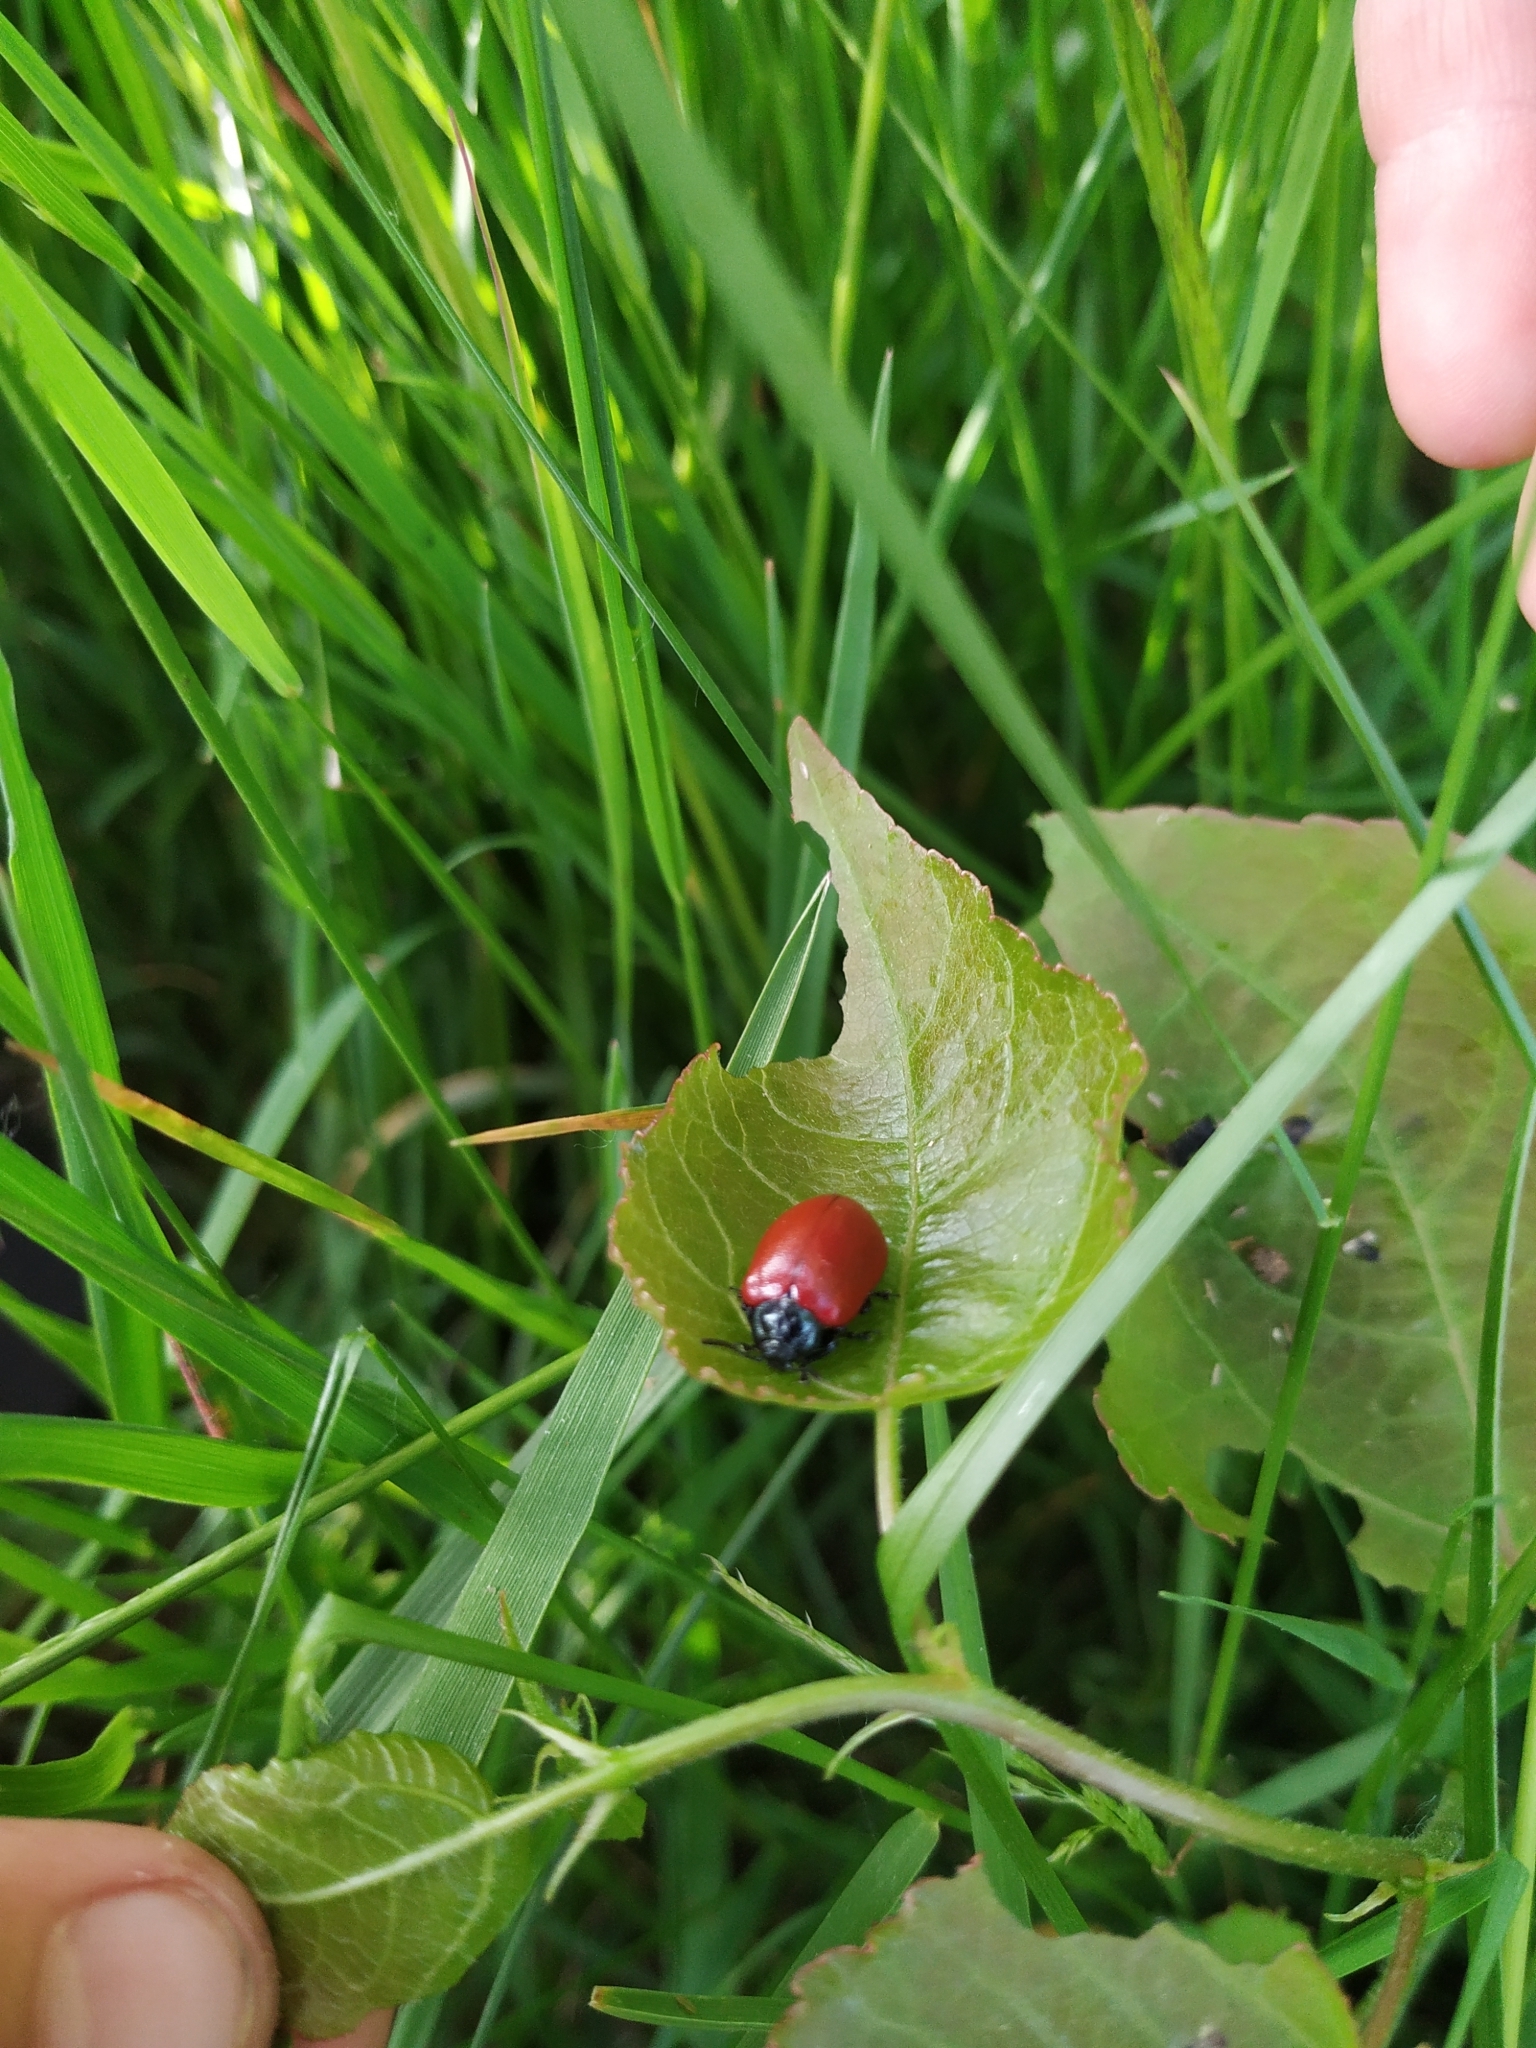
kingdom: Animalia
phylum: Arthropoda
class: Insecta
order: Coleoptera
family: Chrysomelidae
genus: Chrysomela
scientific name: Chrysomela populi
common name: Red poplar leaf beetle
